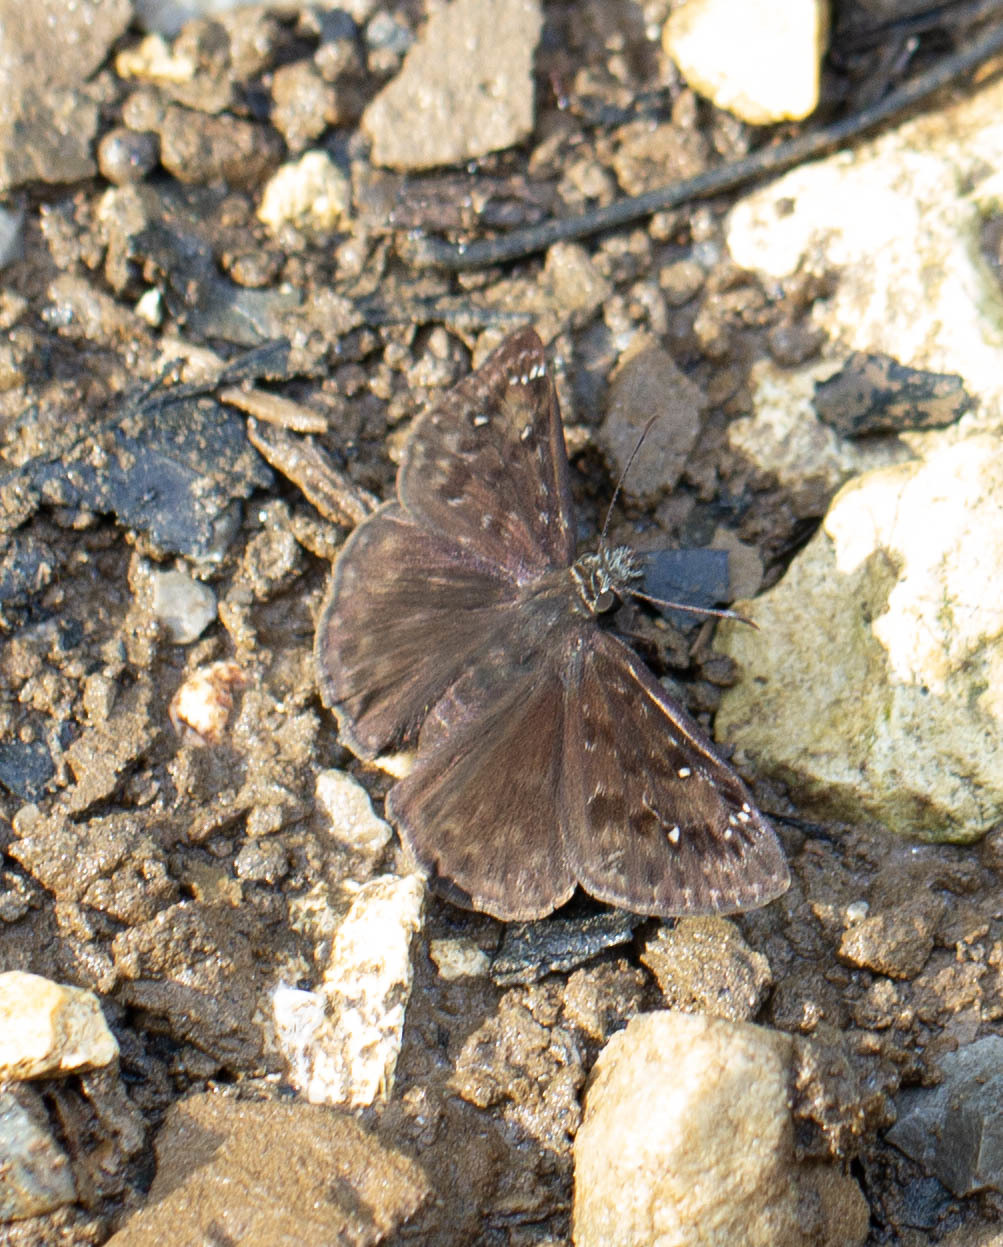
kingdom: Animalia
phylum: Arthropoda
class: Insecta
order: Lepidoptera
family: Hesperiidae
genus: Erynnis
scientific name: Erynnis horatius
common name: Horace's duskywing
